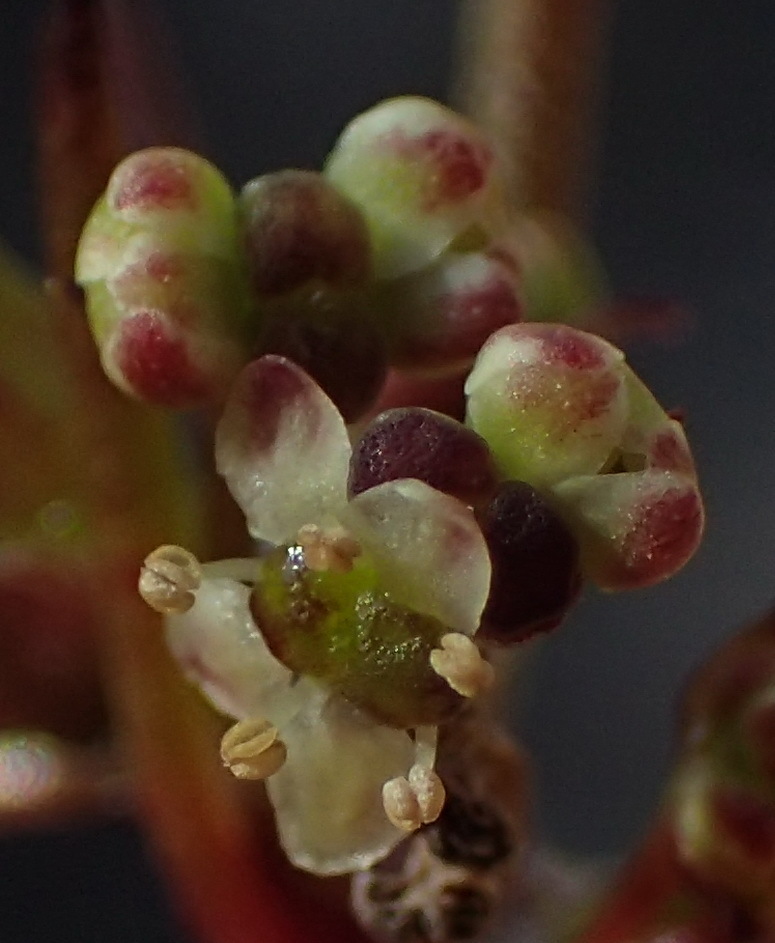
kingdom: Plantae
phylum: Tracheophyta
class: Magnoliopsida
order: Apiales
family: Apiaceae
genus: Centella
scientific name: Centella virgata
